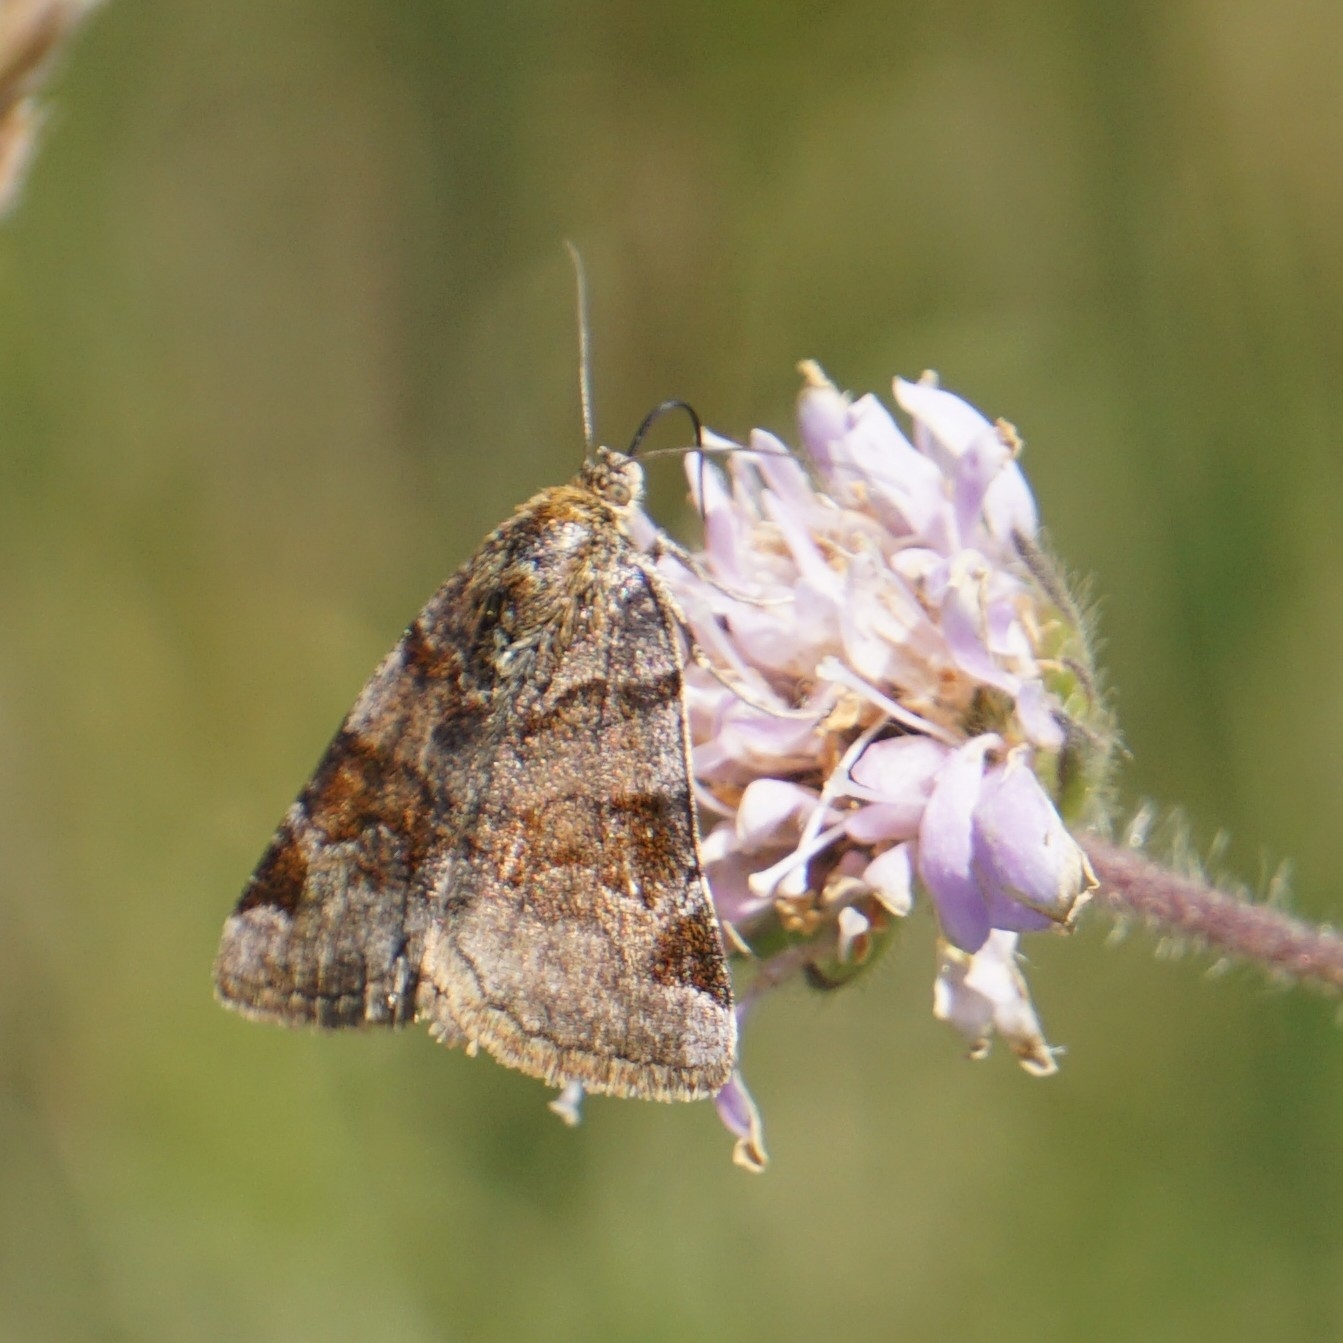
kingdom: Animalia
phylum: Arthropoda
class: Insecta
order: Lepidoptera
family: Erebidae
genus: Euclidia
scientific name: Euclidia glyphica
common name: Burnet companion
